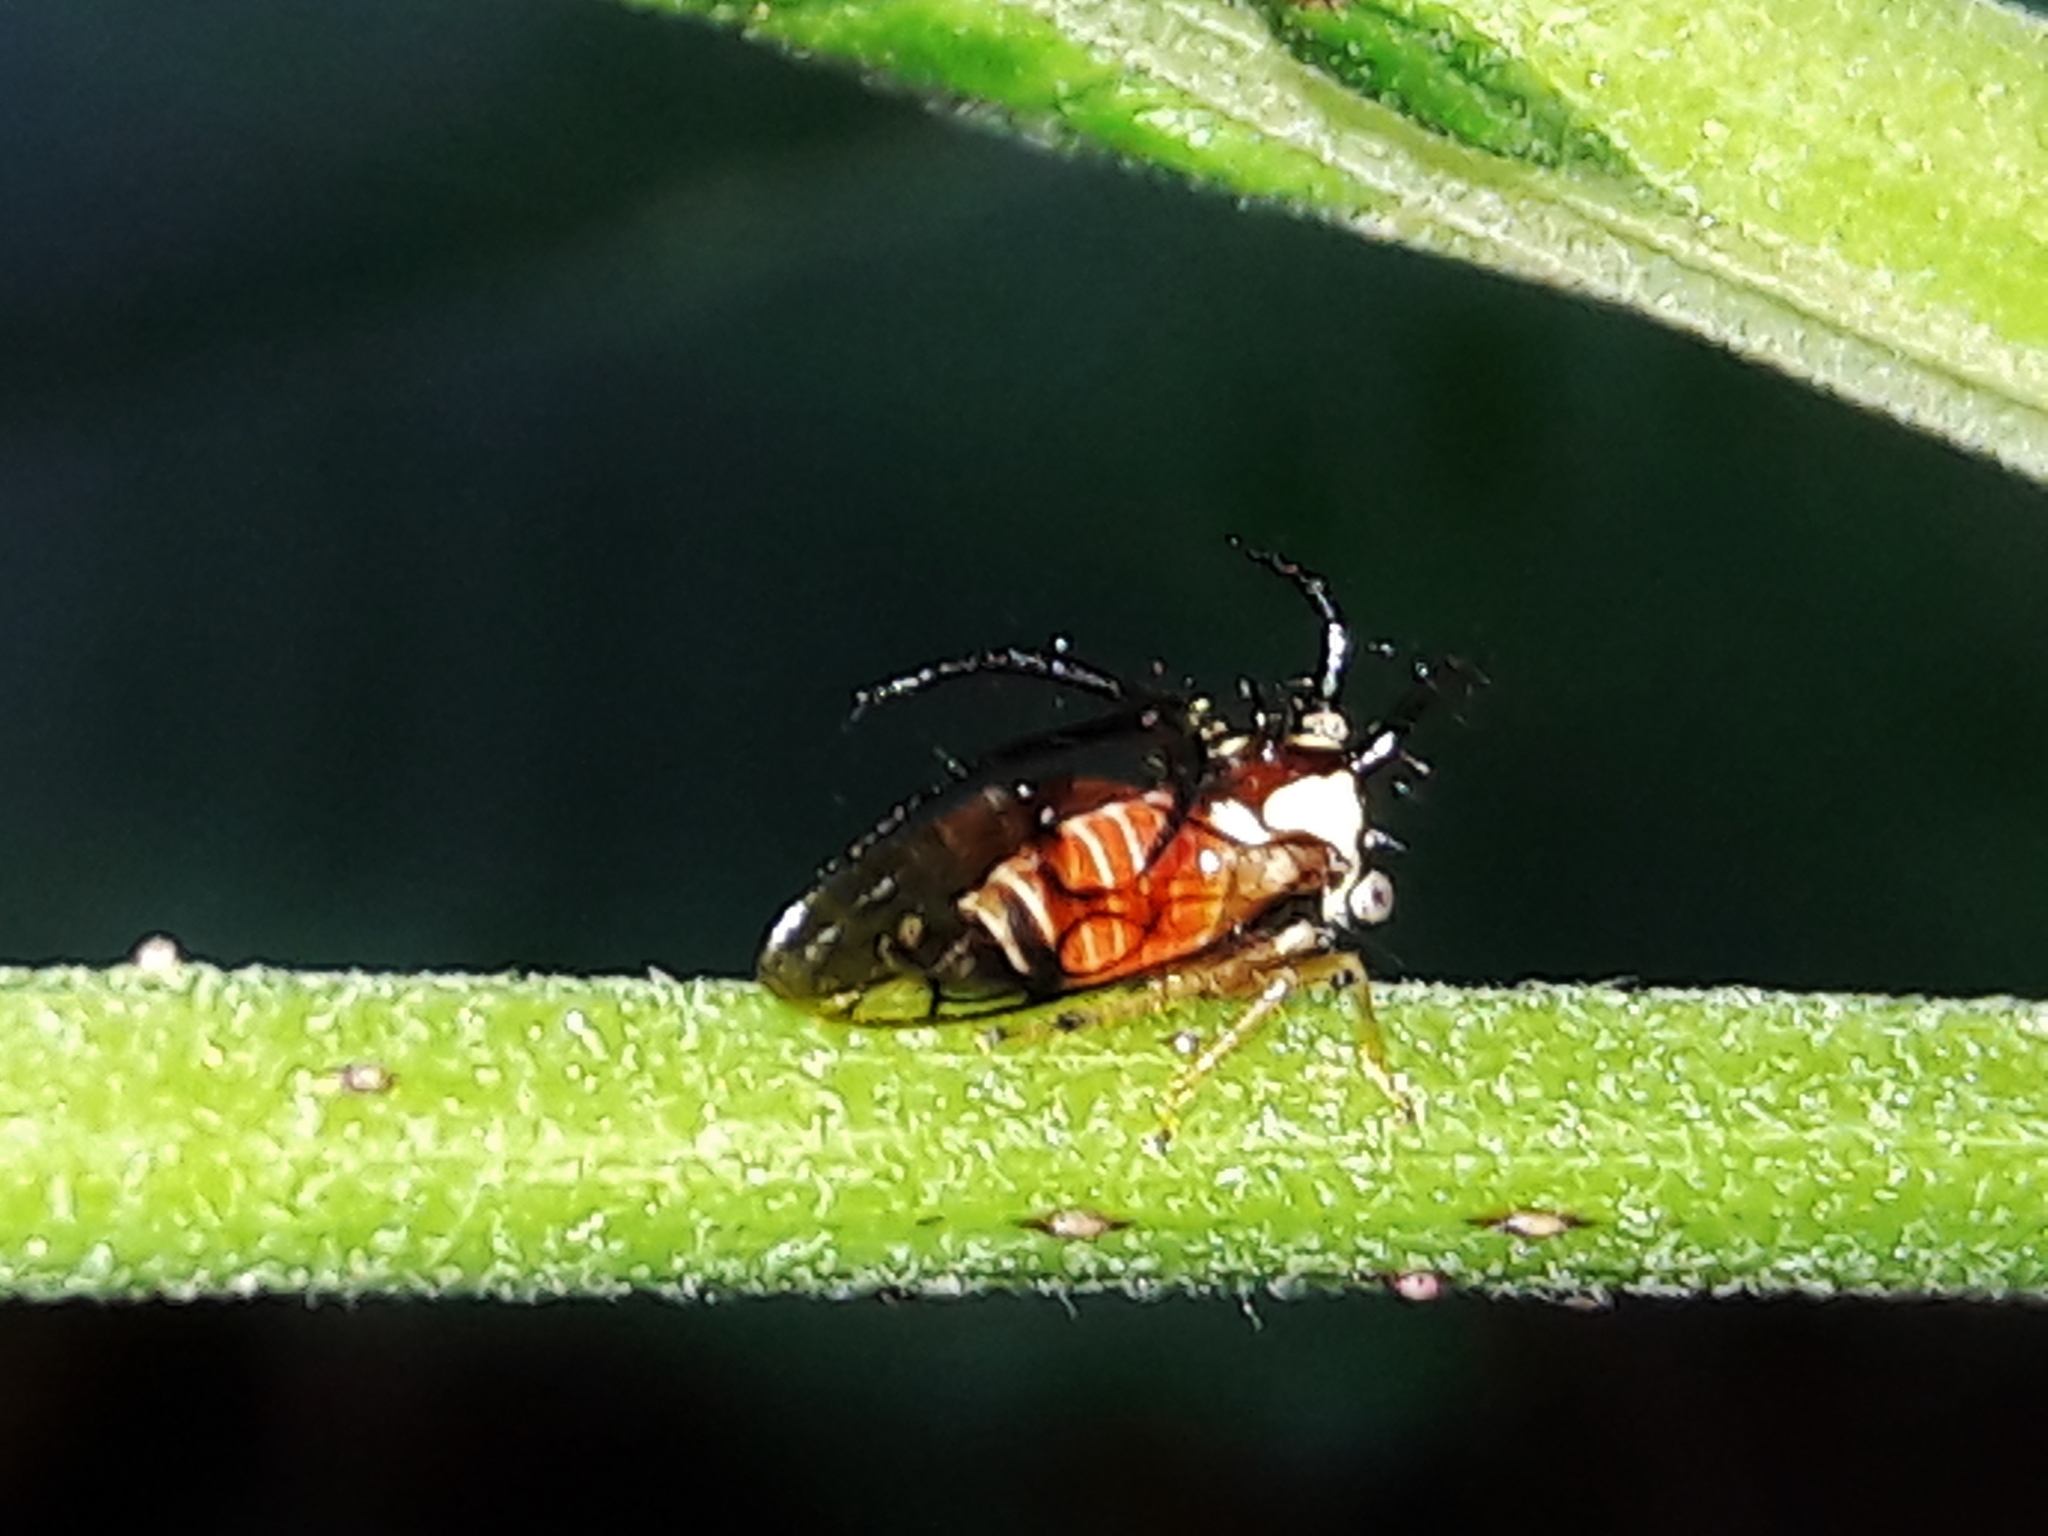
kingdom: Animalia
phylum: Arthropoda
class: Insecta
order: Hemiptera
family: Membracidae
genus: Cyphonia
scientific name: Cyphonia trifida
